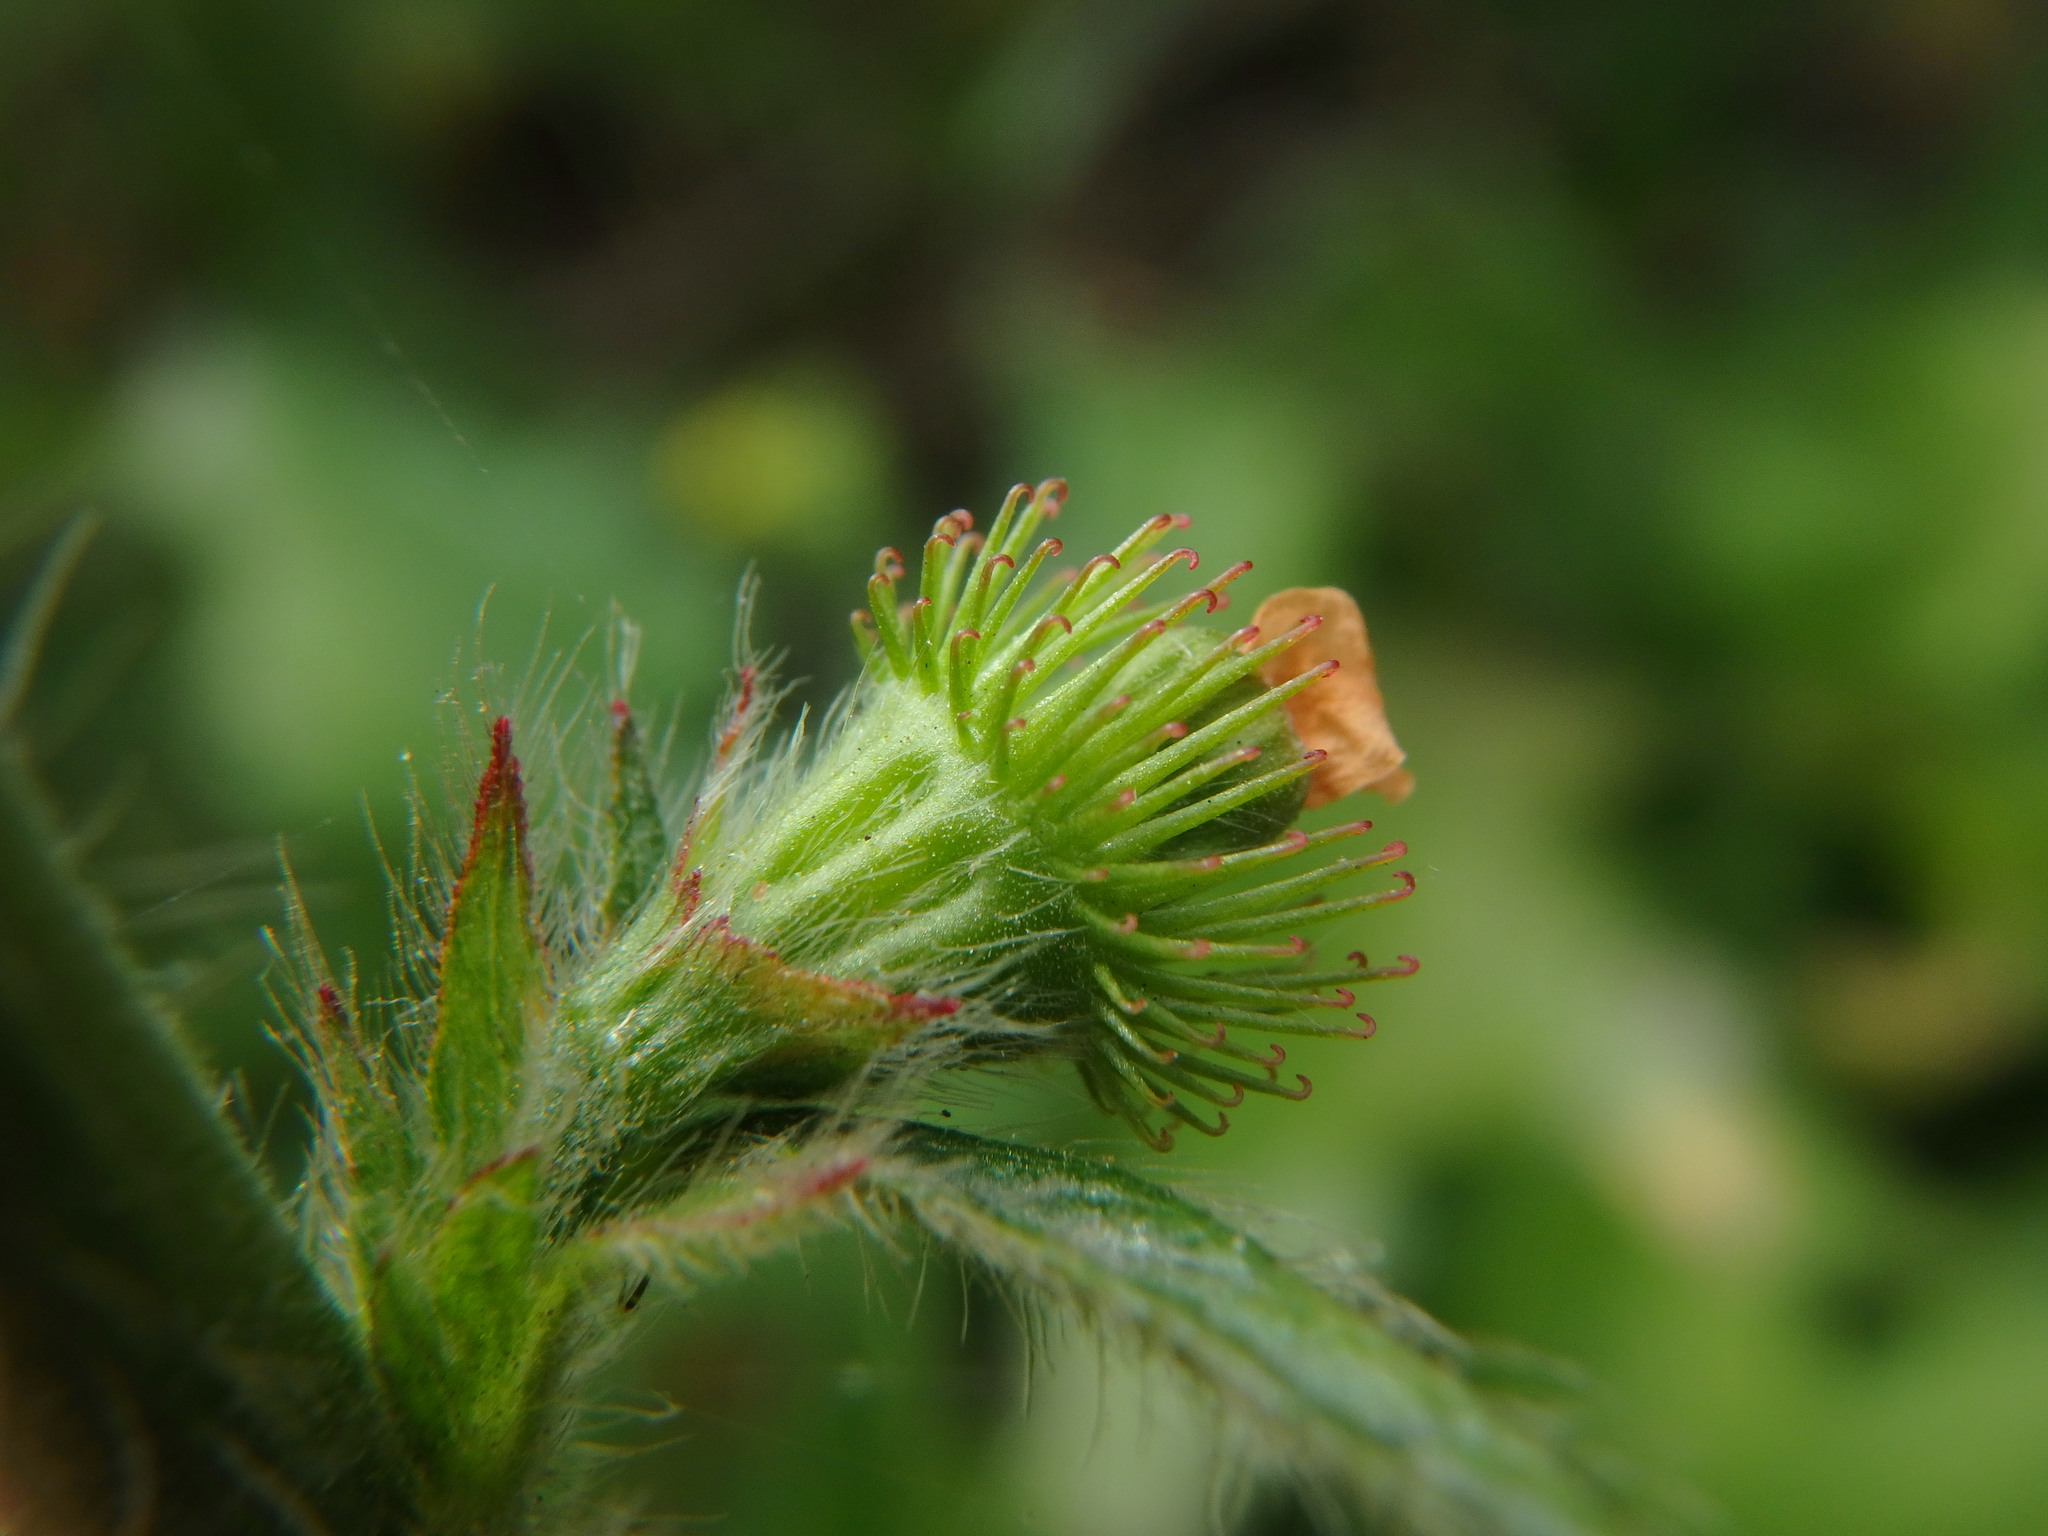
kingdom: Plantae
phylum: Tracheophyta
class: Magnoliopsida
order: Rosales
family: Rosaceae
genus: Agrimonia
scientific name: Agrimonia eupatoria
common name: Agrimony
